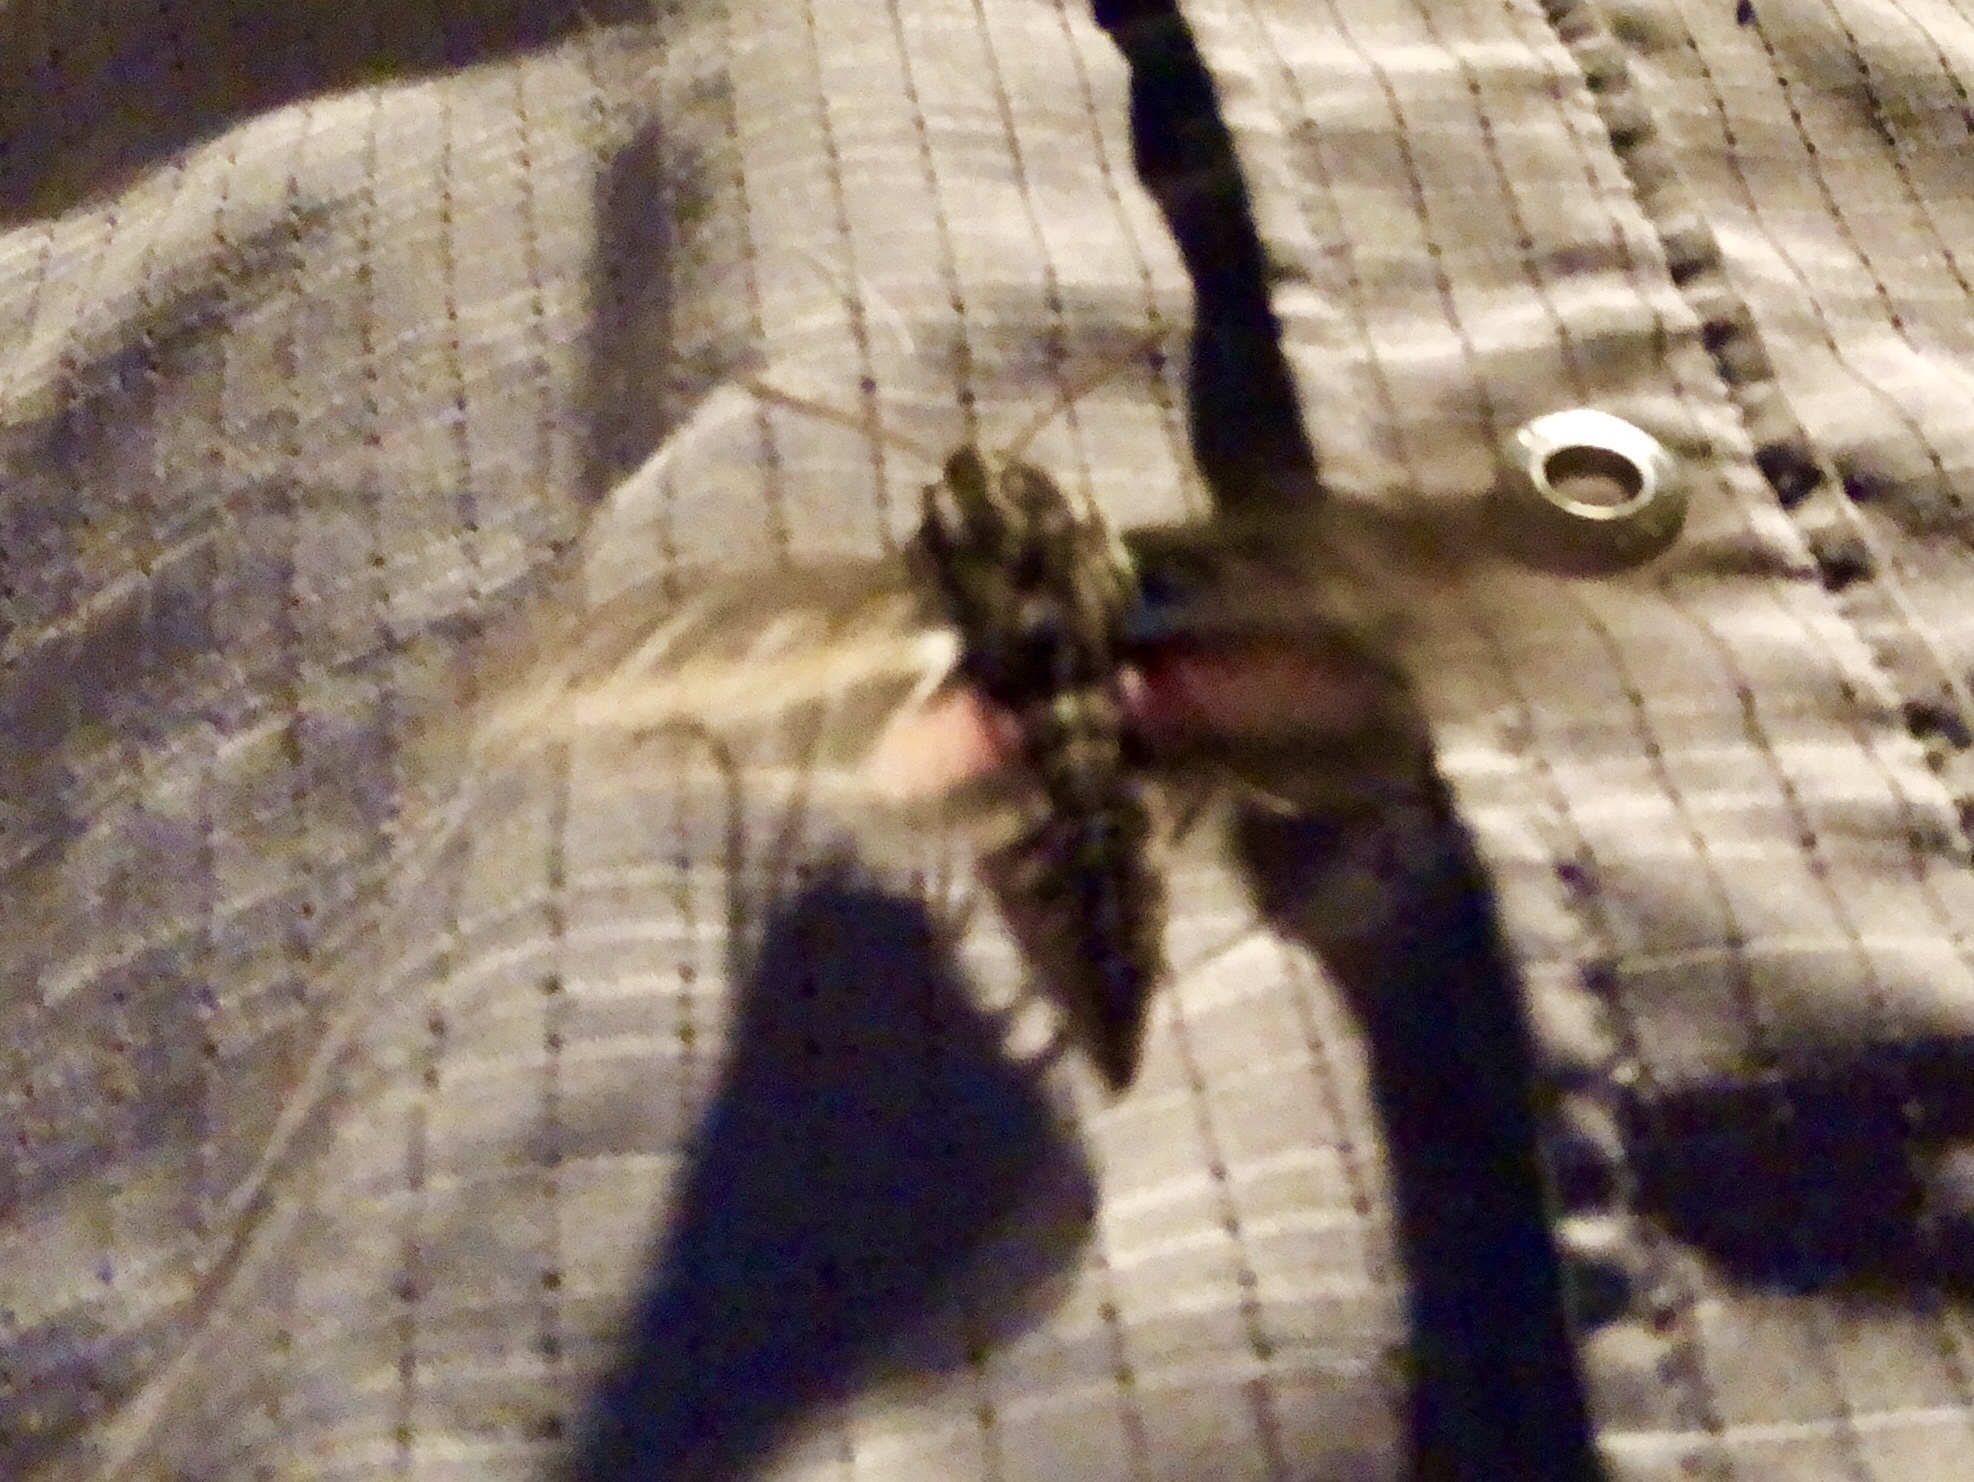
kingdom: Animalia
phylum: Arthropoda
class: Insecta
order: Lepidoptera
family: Sphingidae
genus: Hyles
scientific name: Hyles lineata
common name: White-lined sphinx
